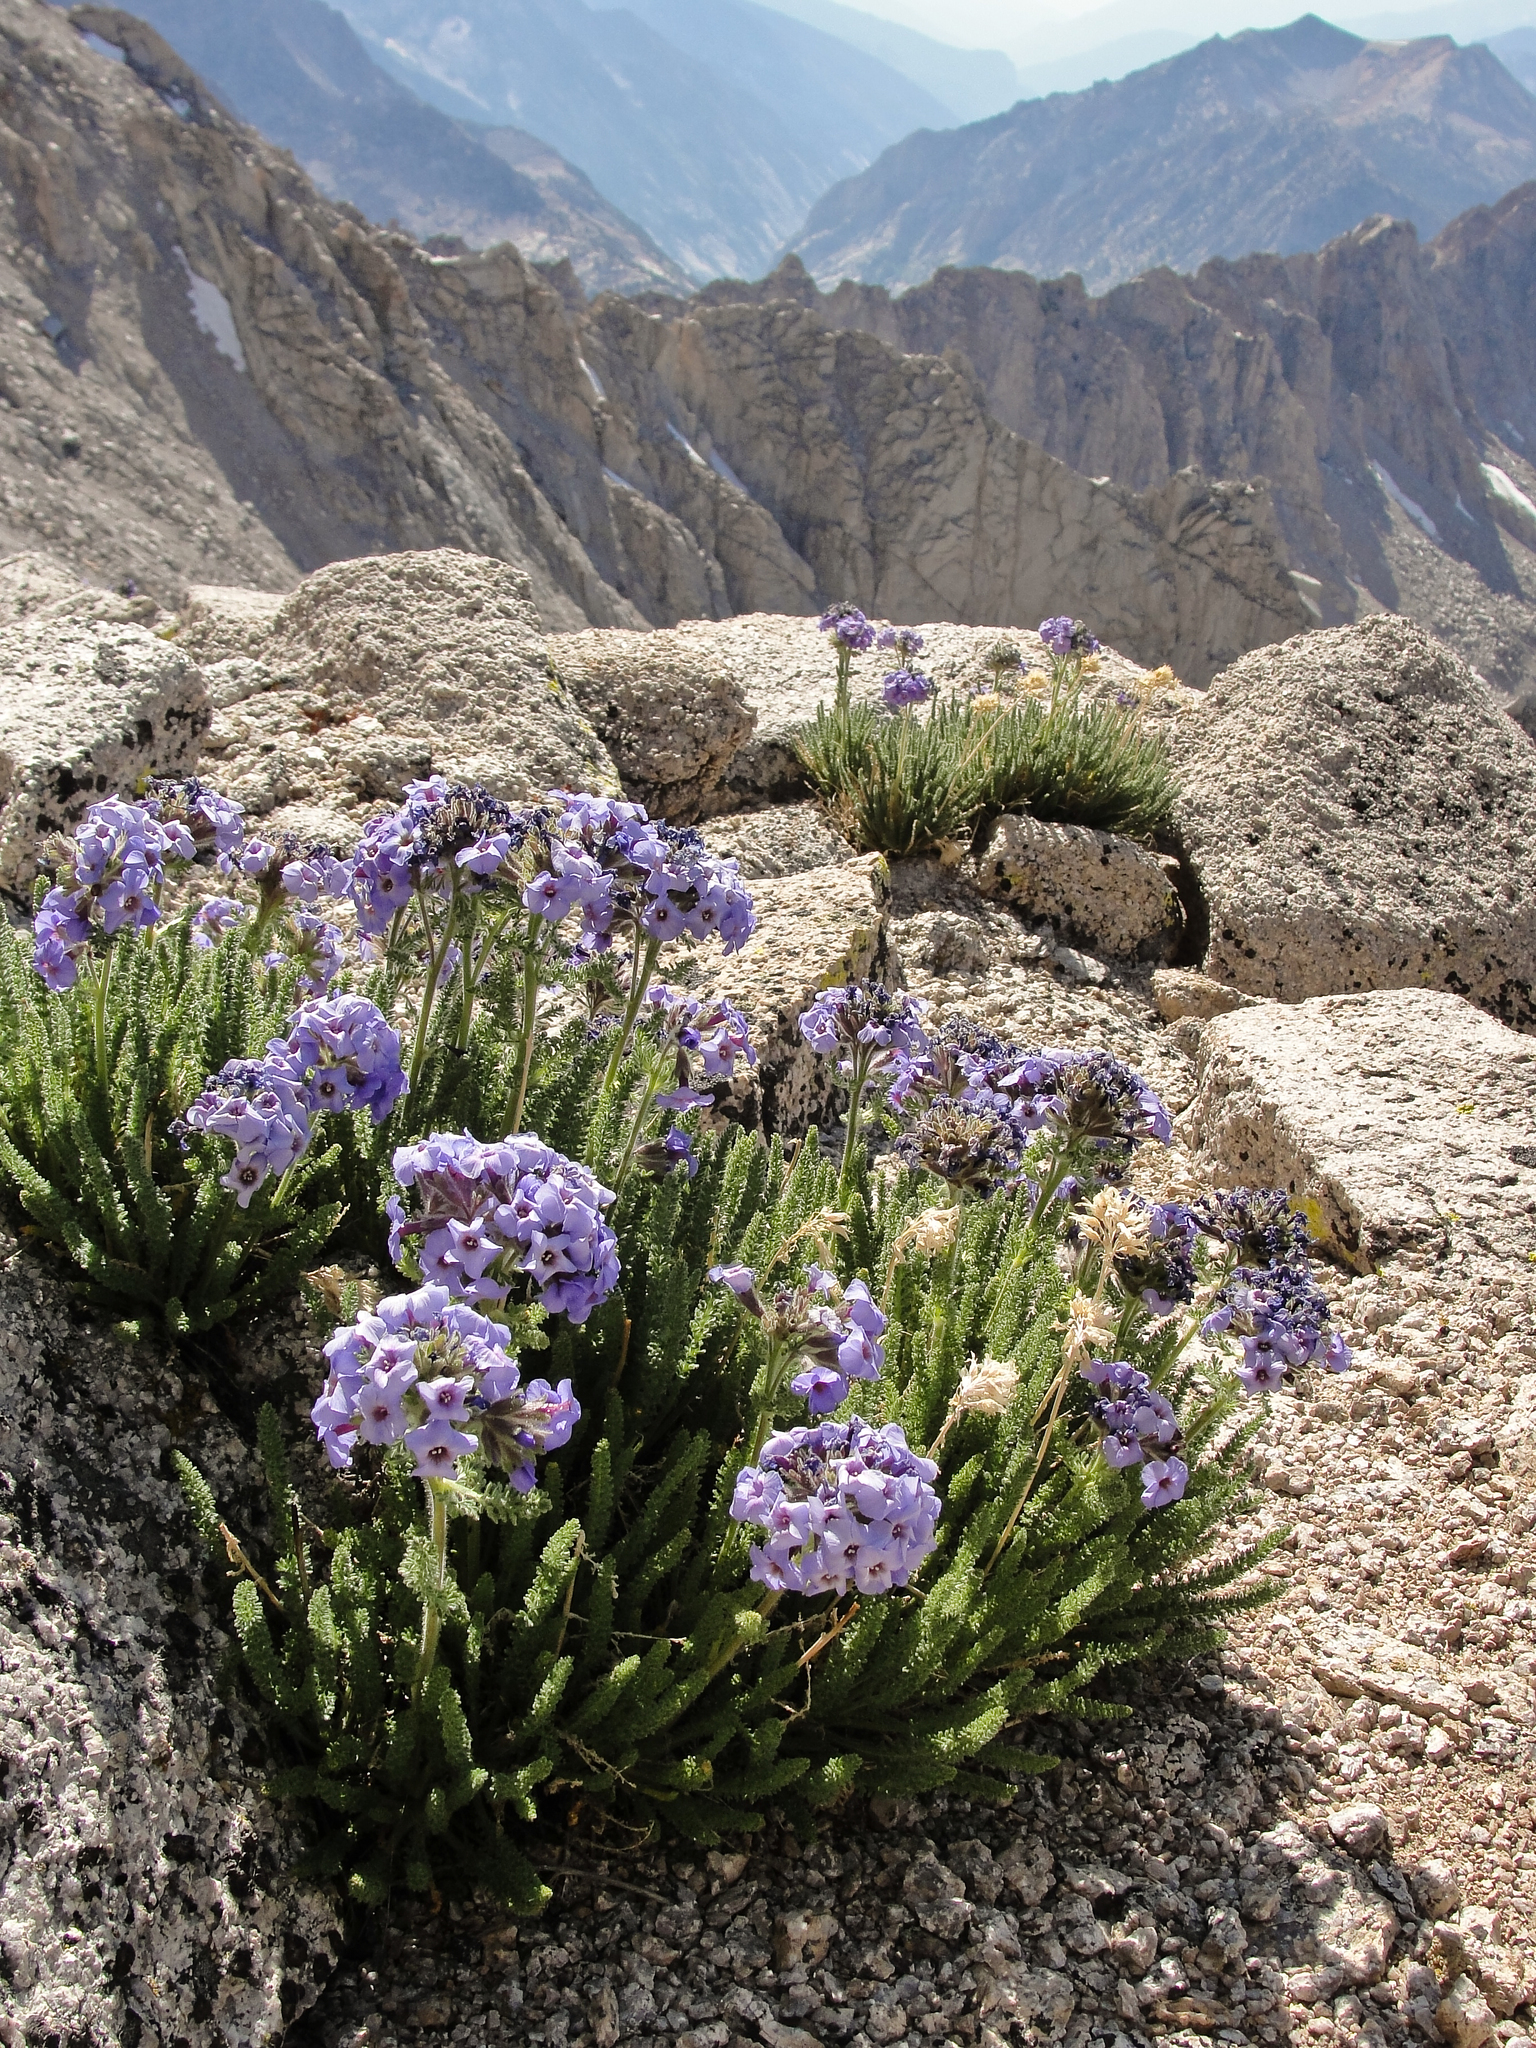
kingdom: Plantae
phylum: Tracheophyta
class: Magnoliopsida
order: Ericales
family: Polemoniaceae
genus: Polemonium
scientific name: Polemonium eximium
